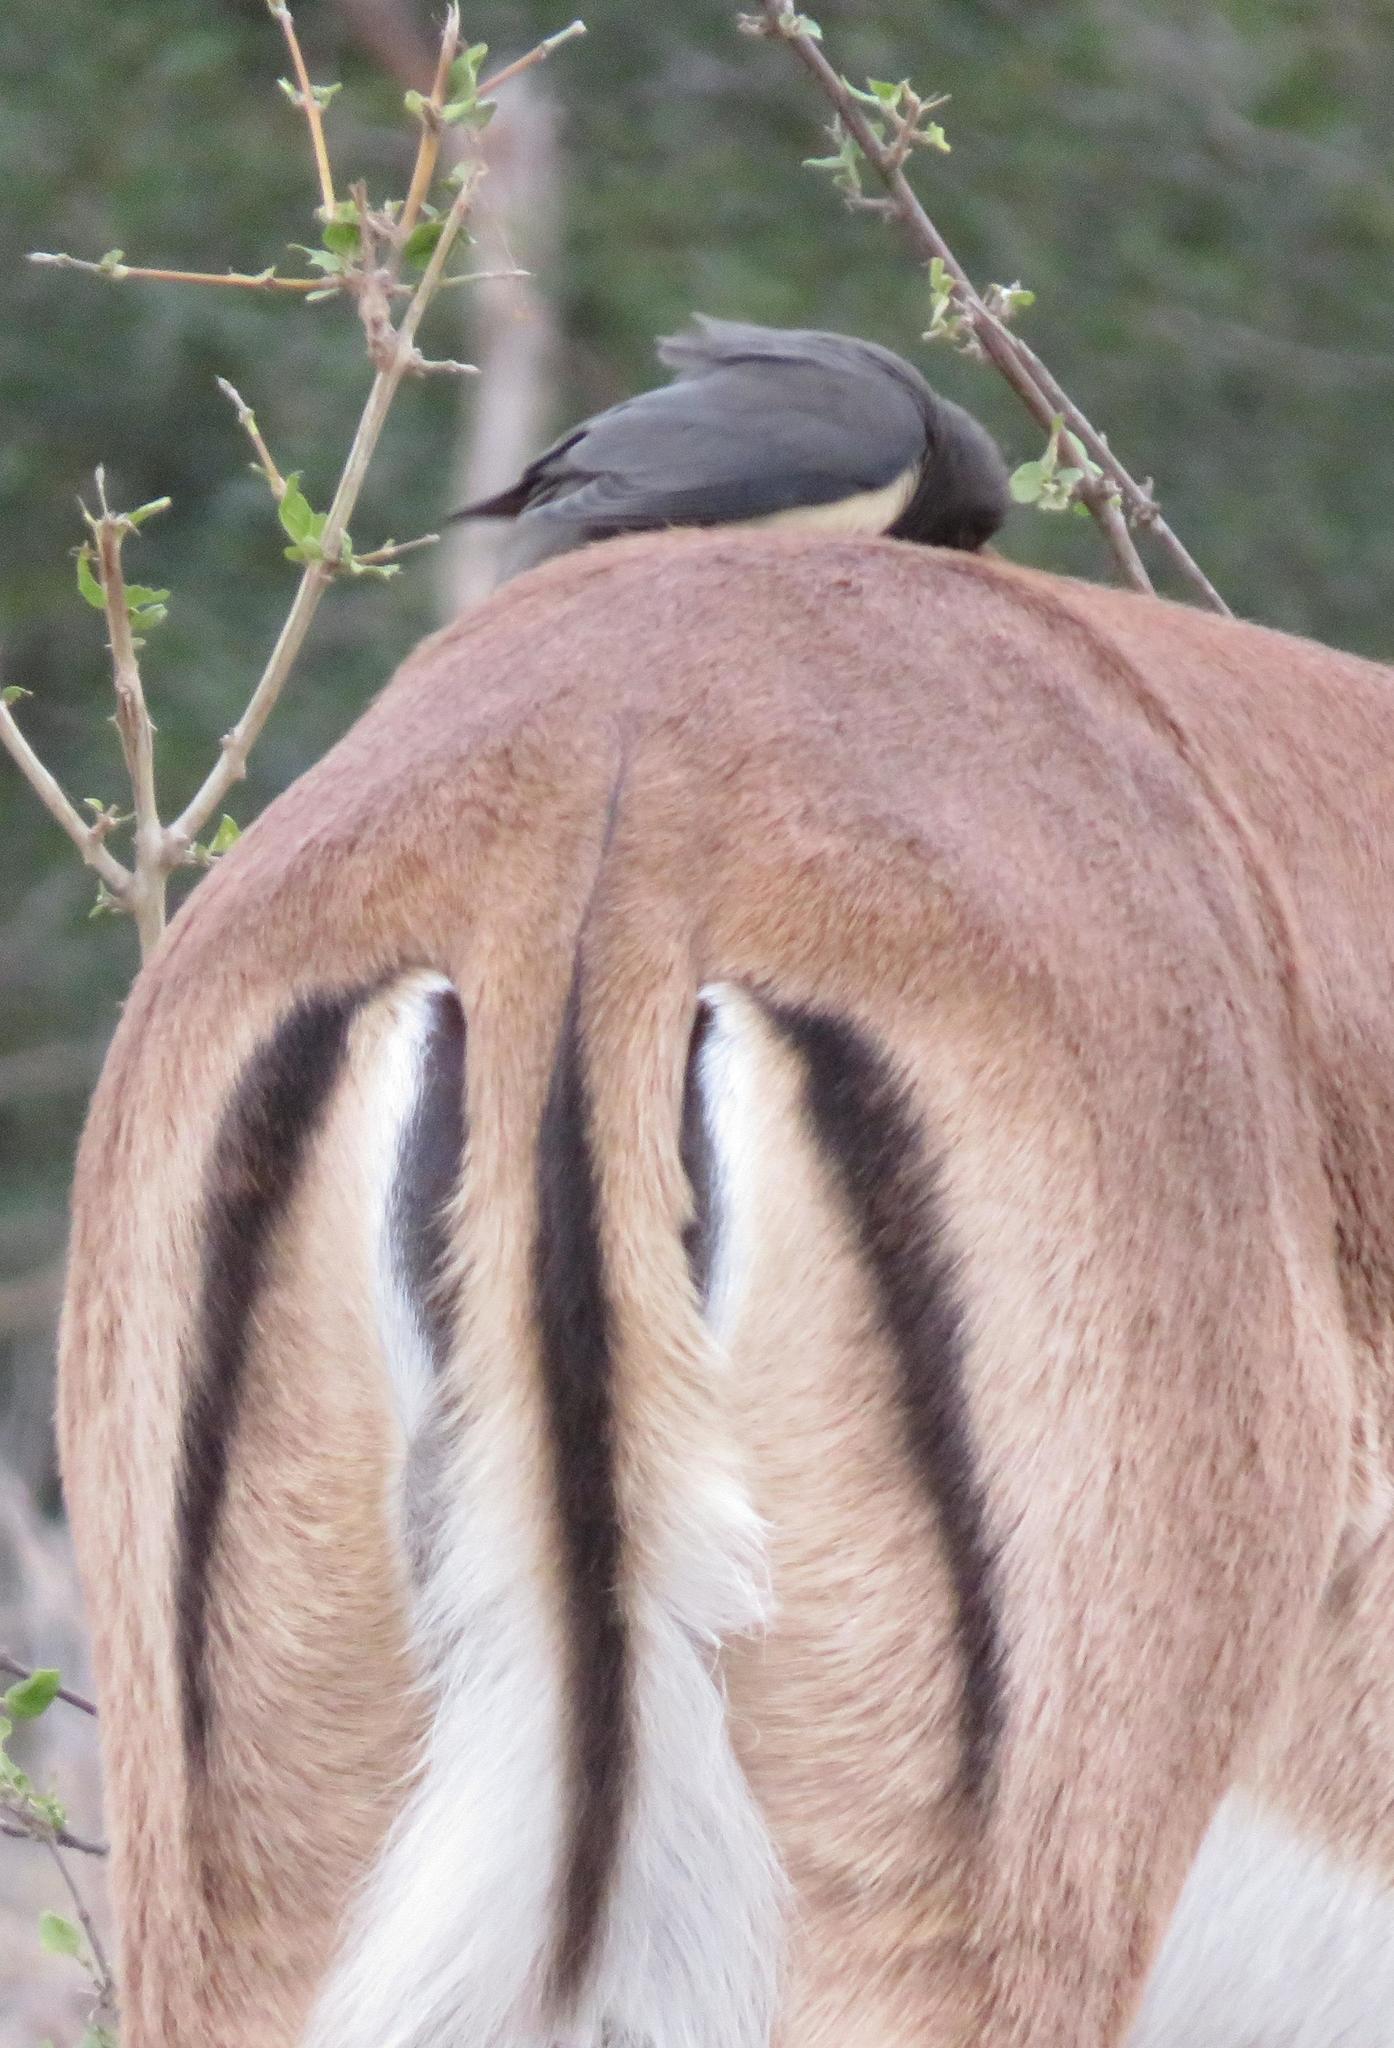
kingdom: Animalia
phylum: Chordata
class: Mammalia
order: Artiodactyla
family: Bovidae
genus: Aepyceros
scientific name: Aepyceros melampus
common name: Impala
